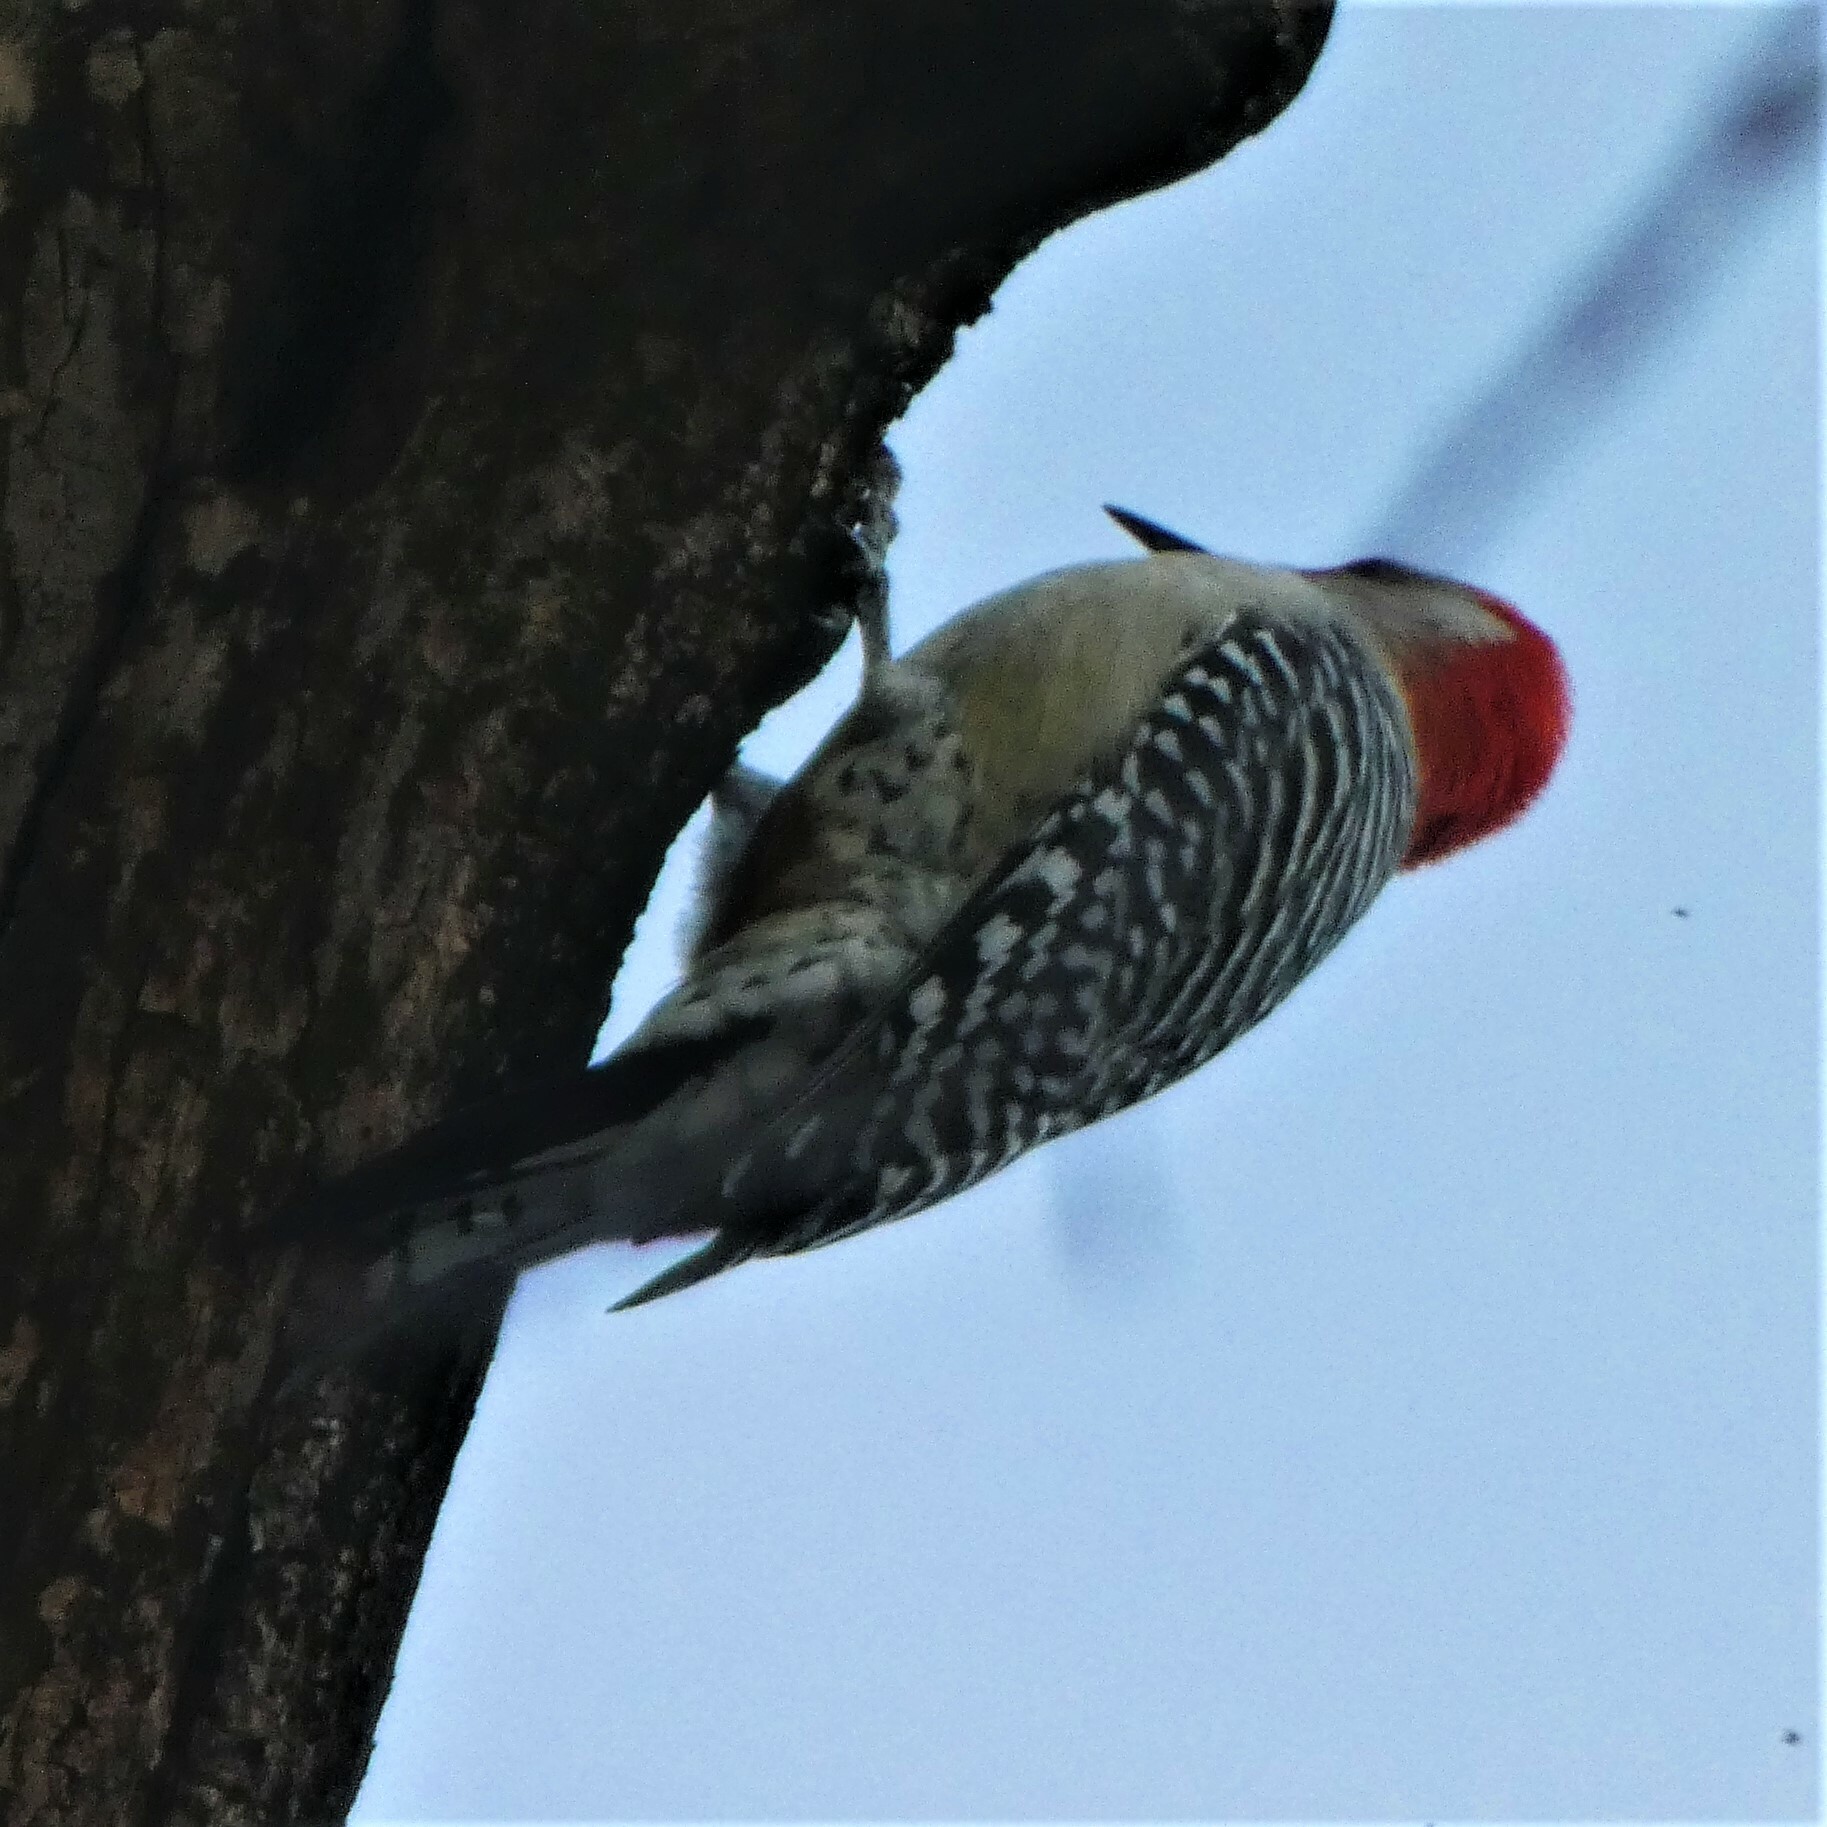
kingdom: Animalia
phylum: Chordata
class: Aves
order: Piciformes
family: Picidae
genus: Melanerpes
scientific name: Melanerpes carolinus
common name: Red-bellied woodpecker
